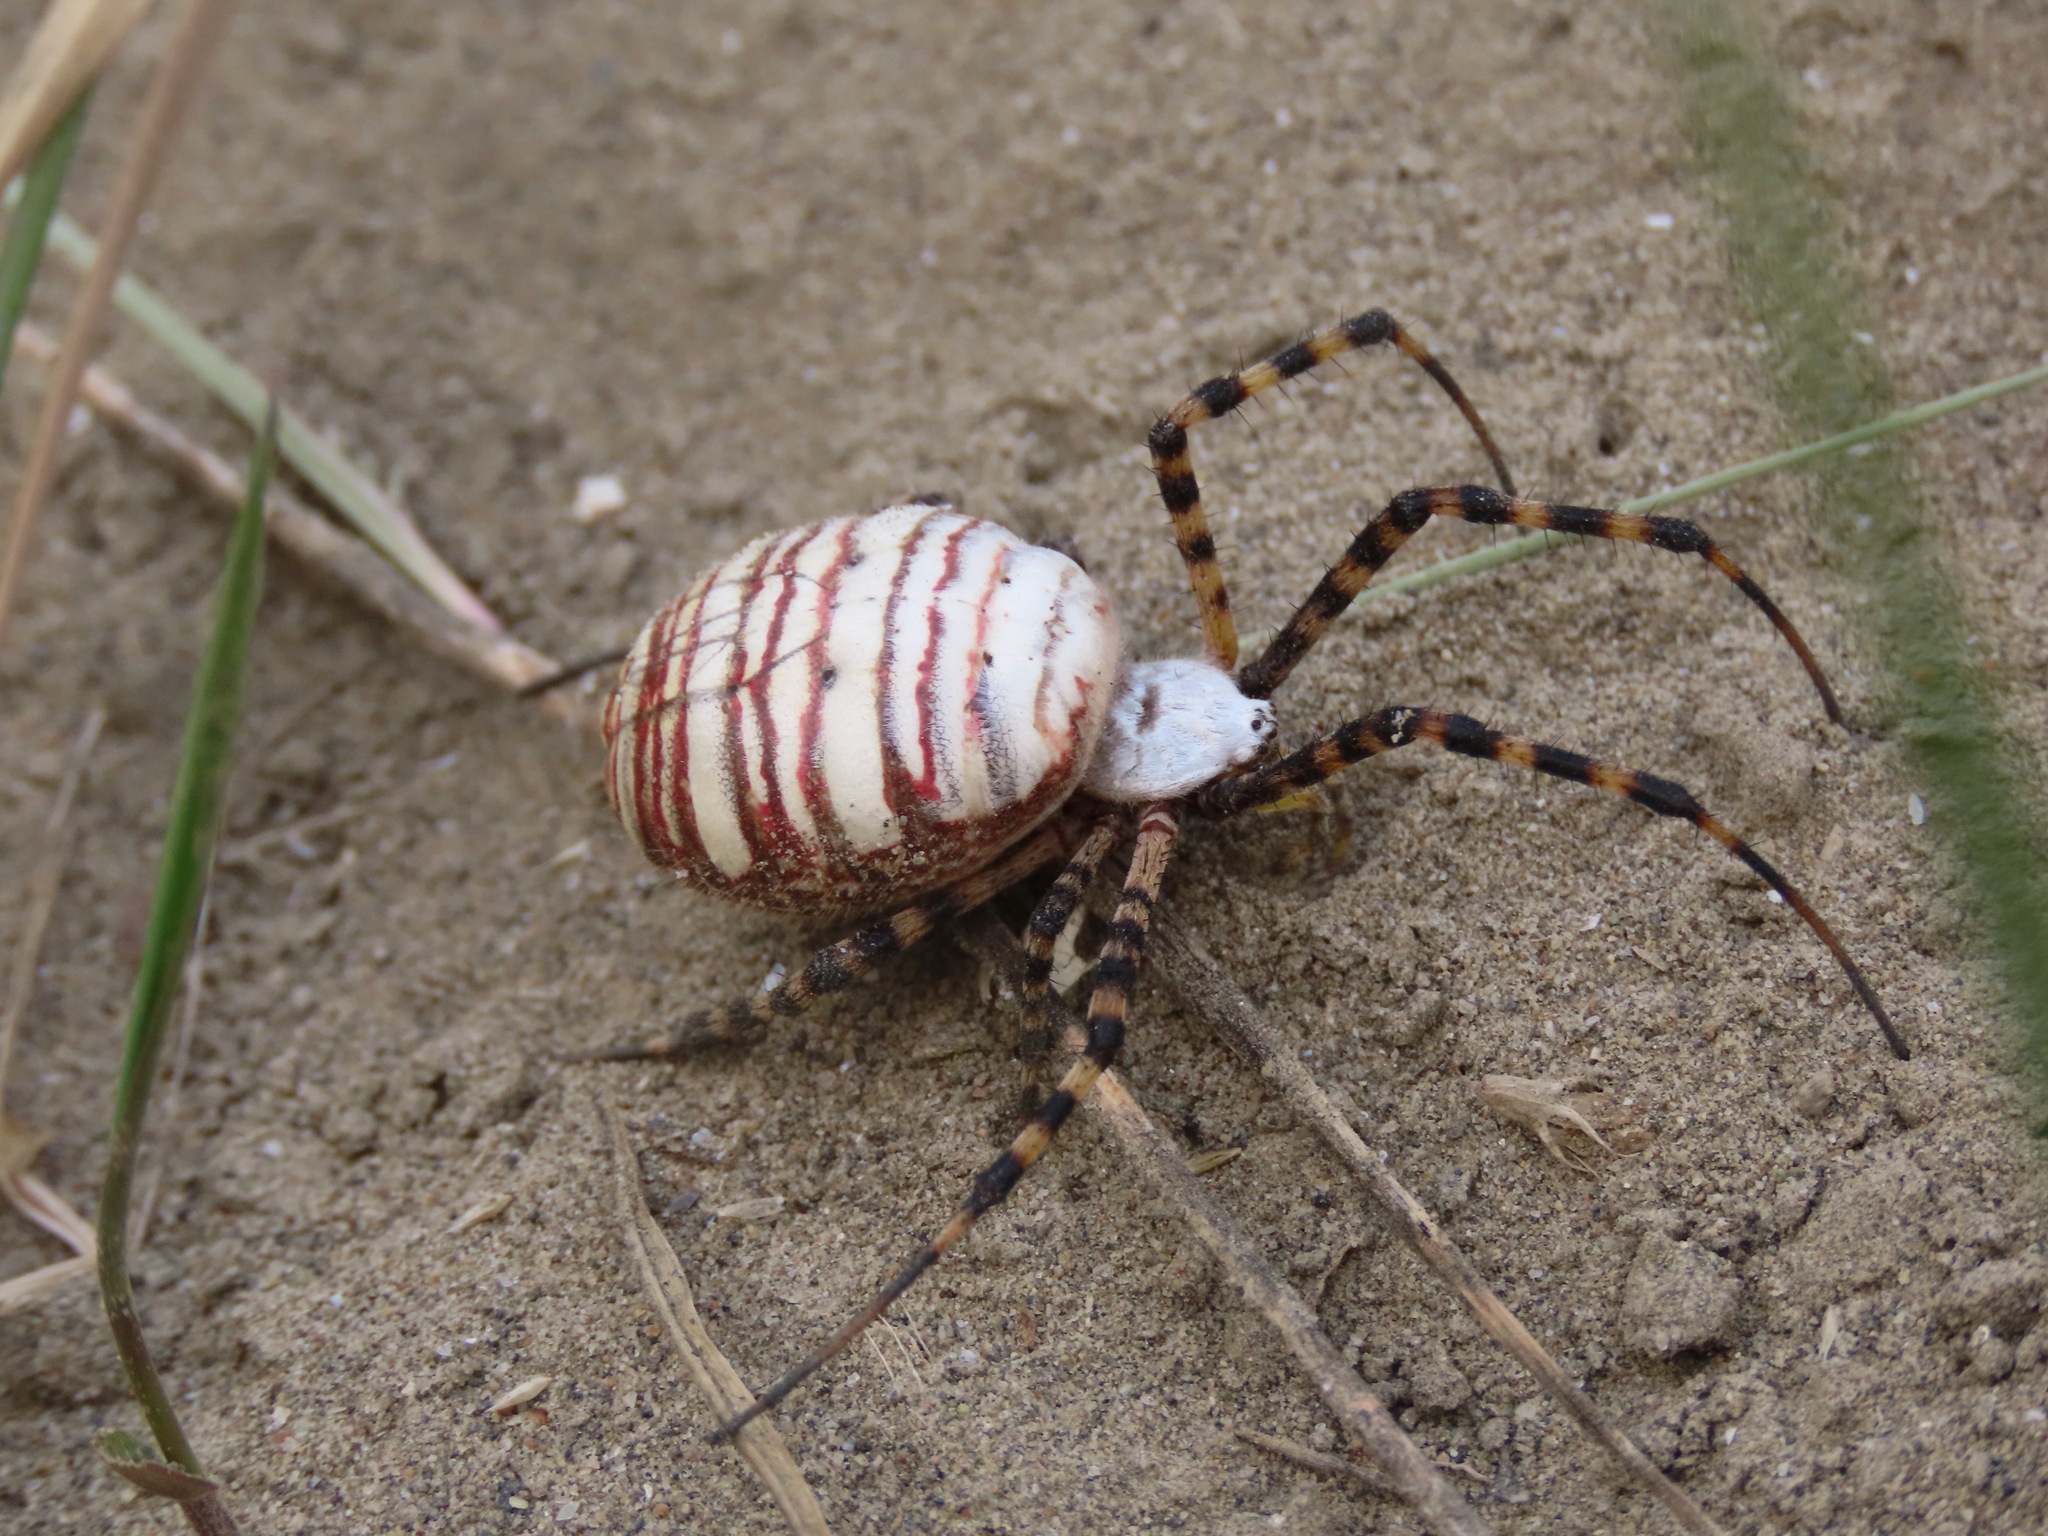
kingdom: Animalia
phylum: Arthropoda
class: Arachnida
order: Araneae
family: Araneidae
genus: Argiope
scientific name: Argiope trifasciata
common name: Banded garden spider
